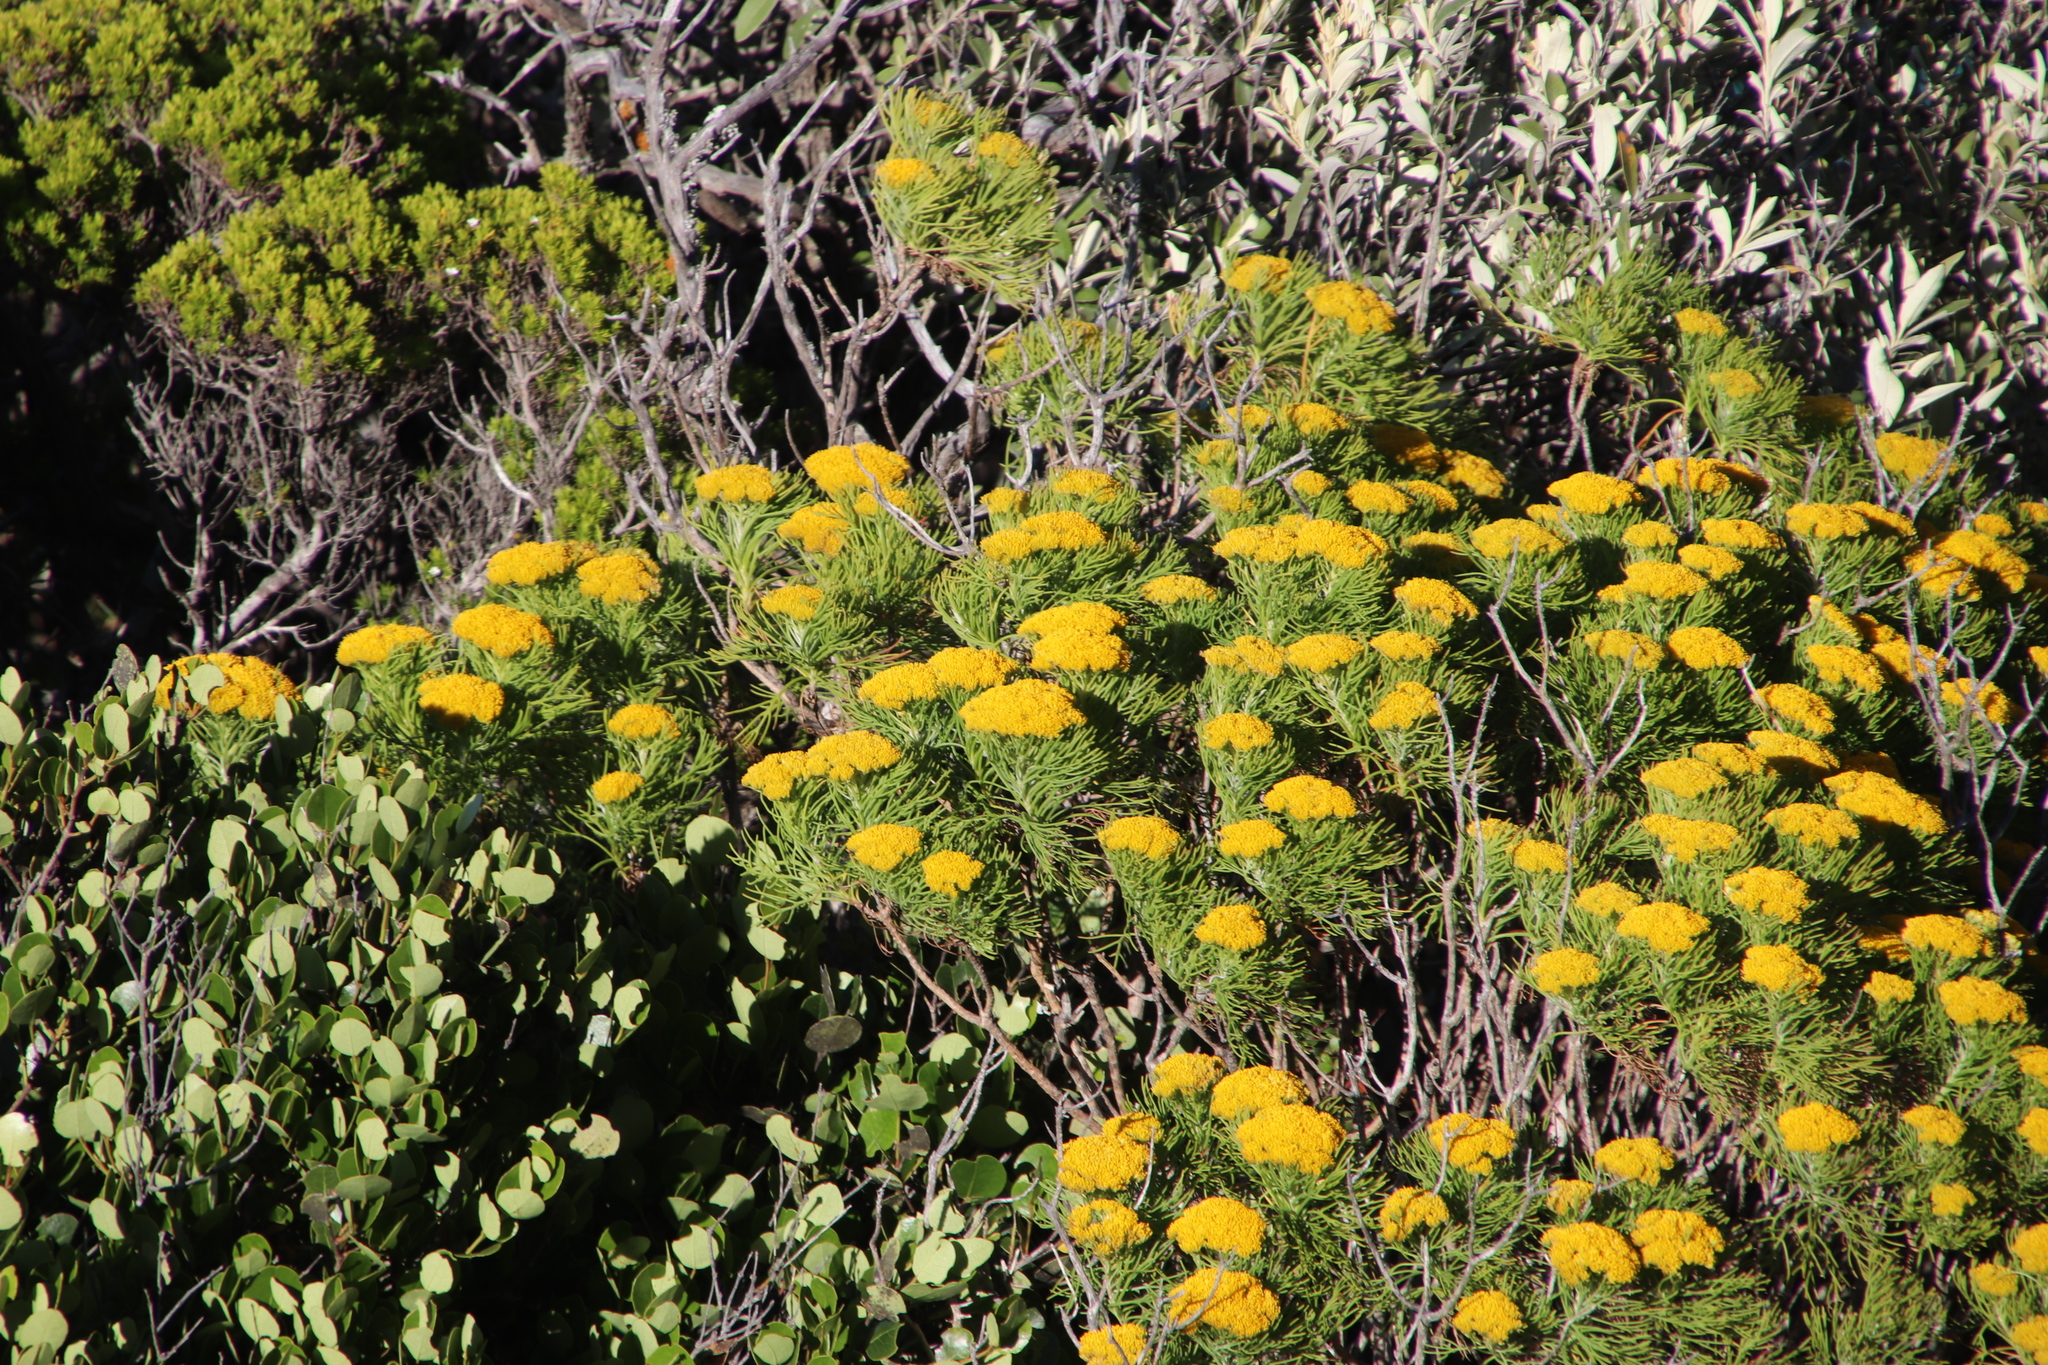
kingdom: Plantae
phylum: Tracheophyta
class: Magnoliopsida
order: Asterales
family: Asteraceae
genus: Athanasia
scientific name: Athanasia crithmifolia
